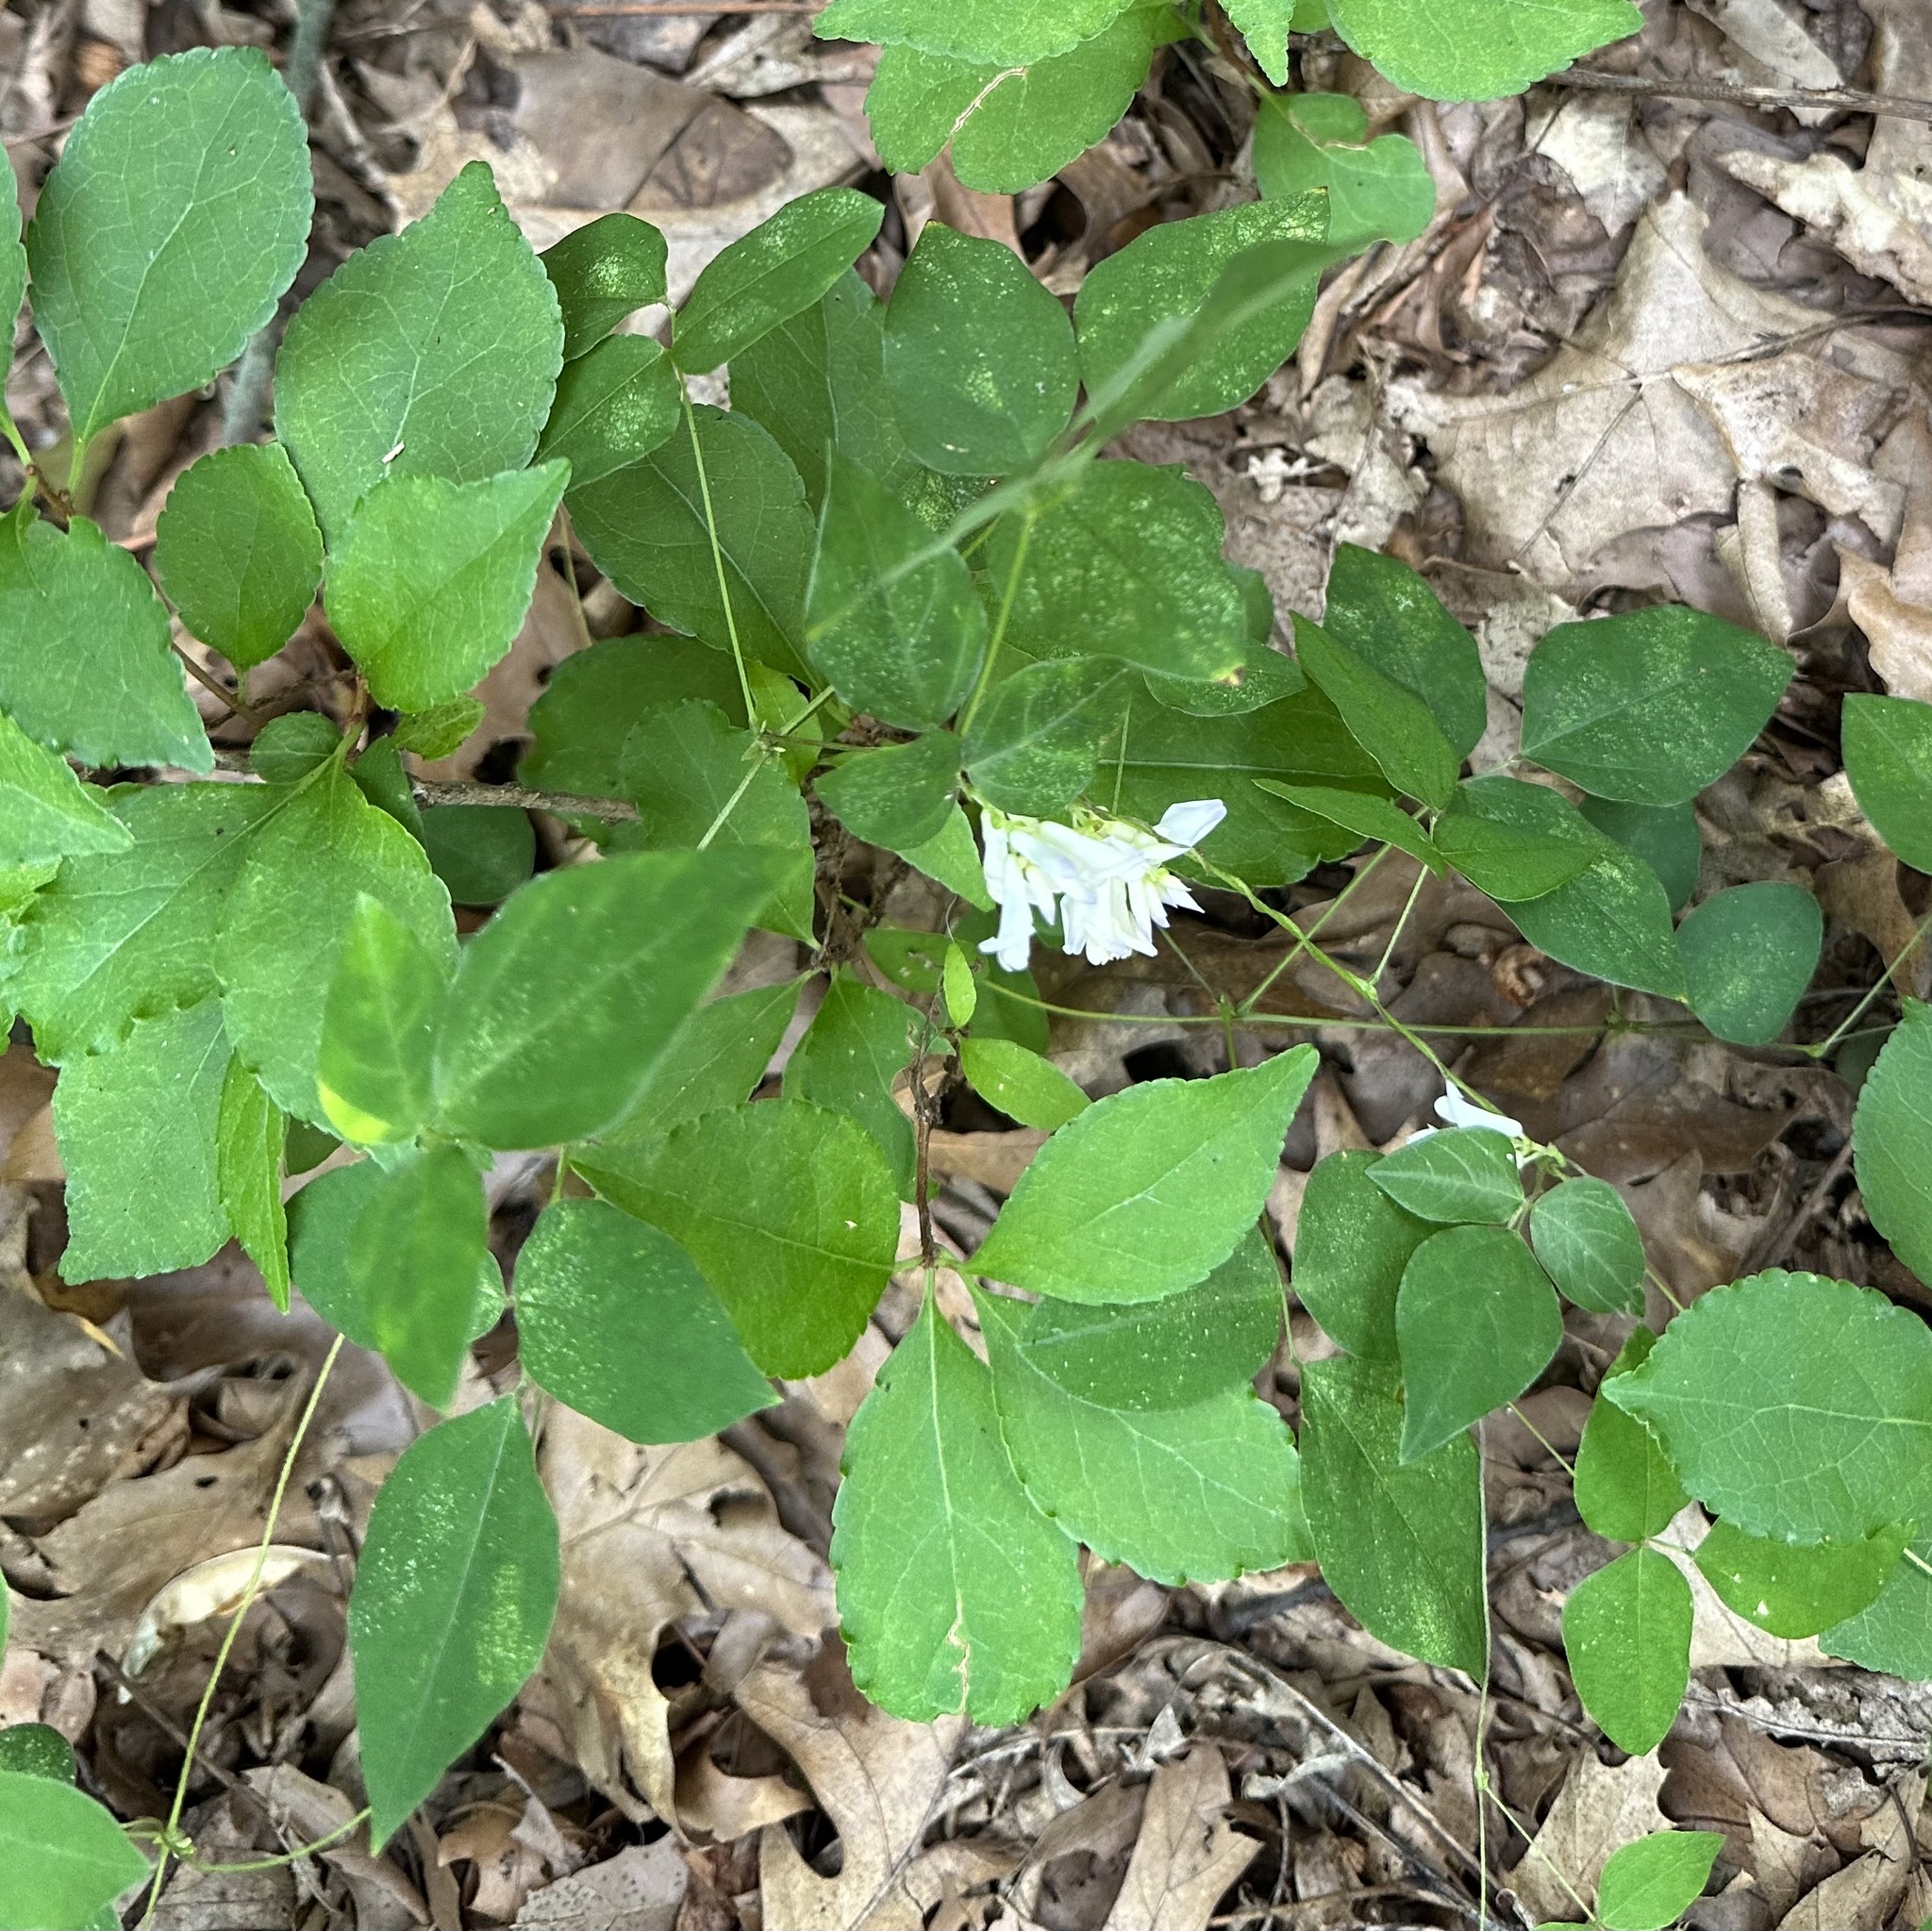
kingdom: Plantae
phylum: Tracheophyta
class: Magnoliopsida
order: Fabales
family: Fabaceae
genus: Amphicarpaea
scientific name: Amphicarpaea bracteata
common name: American hog peanut
